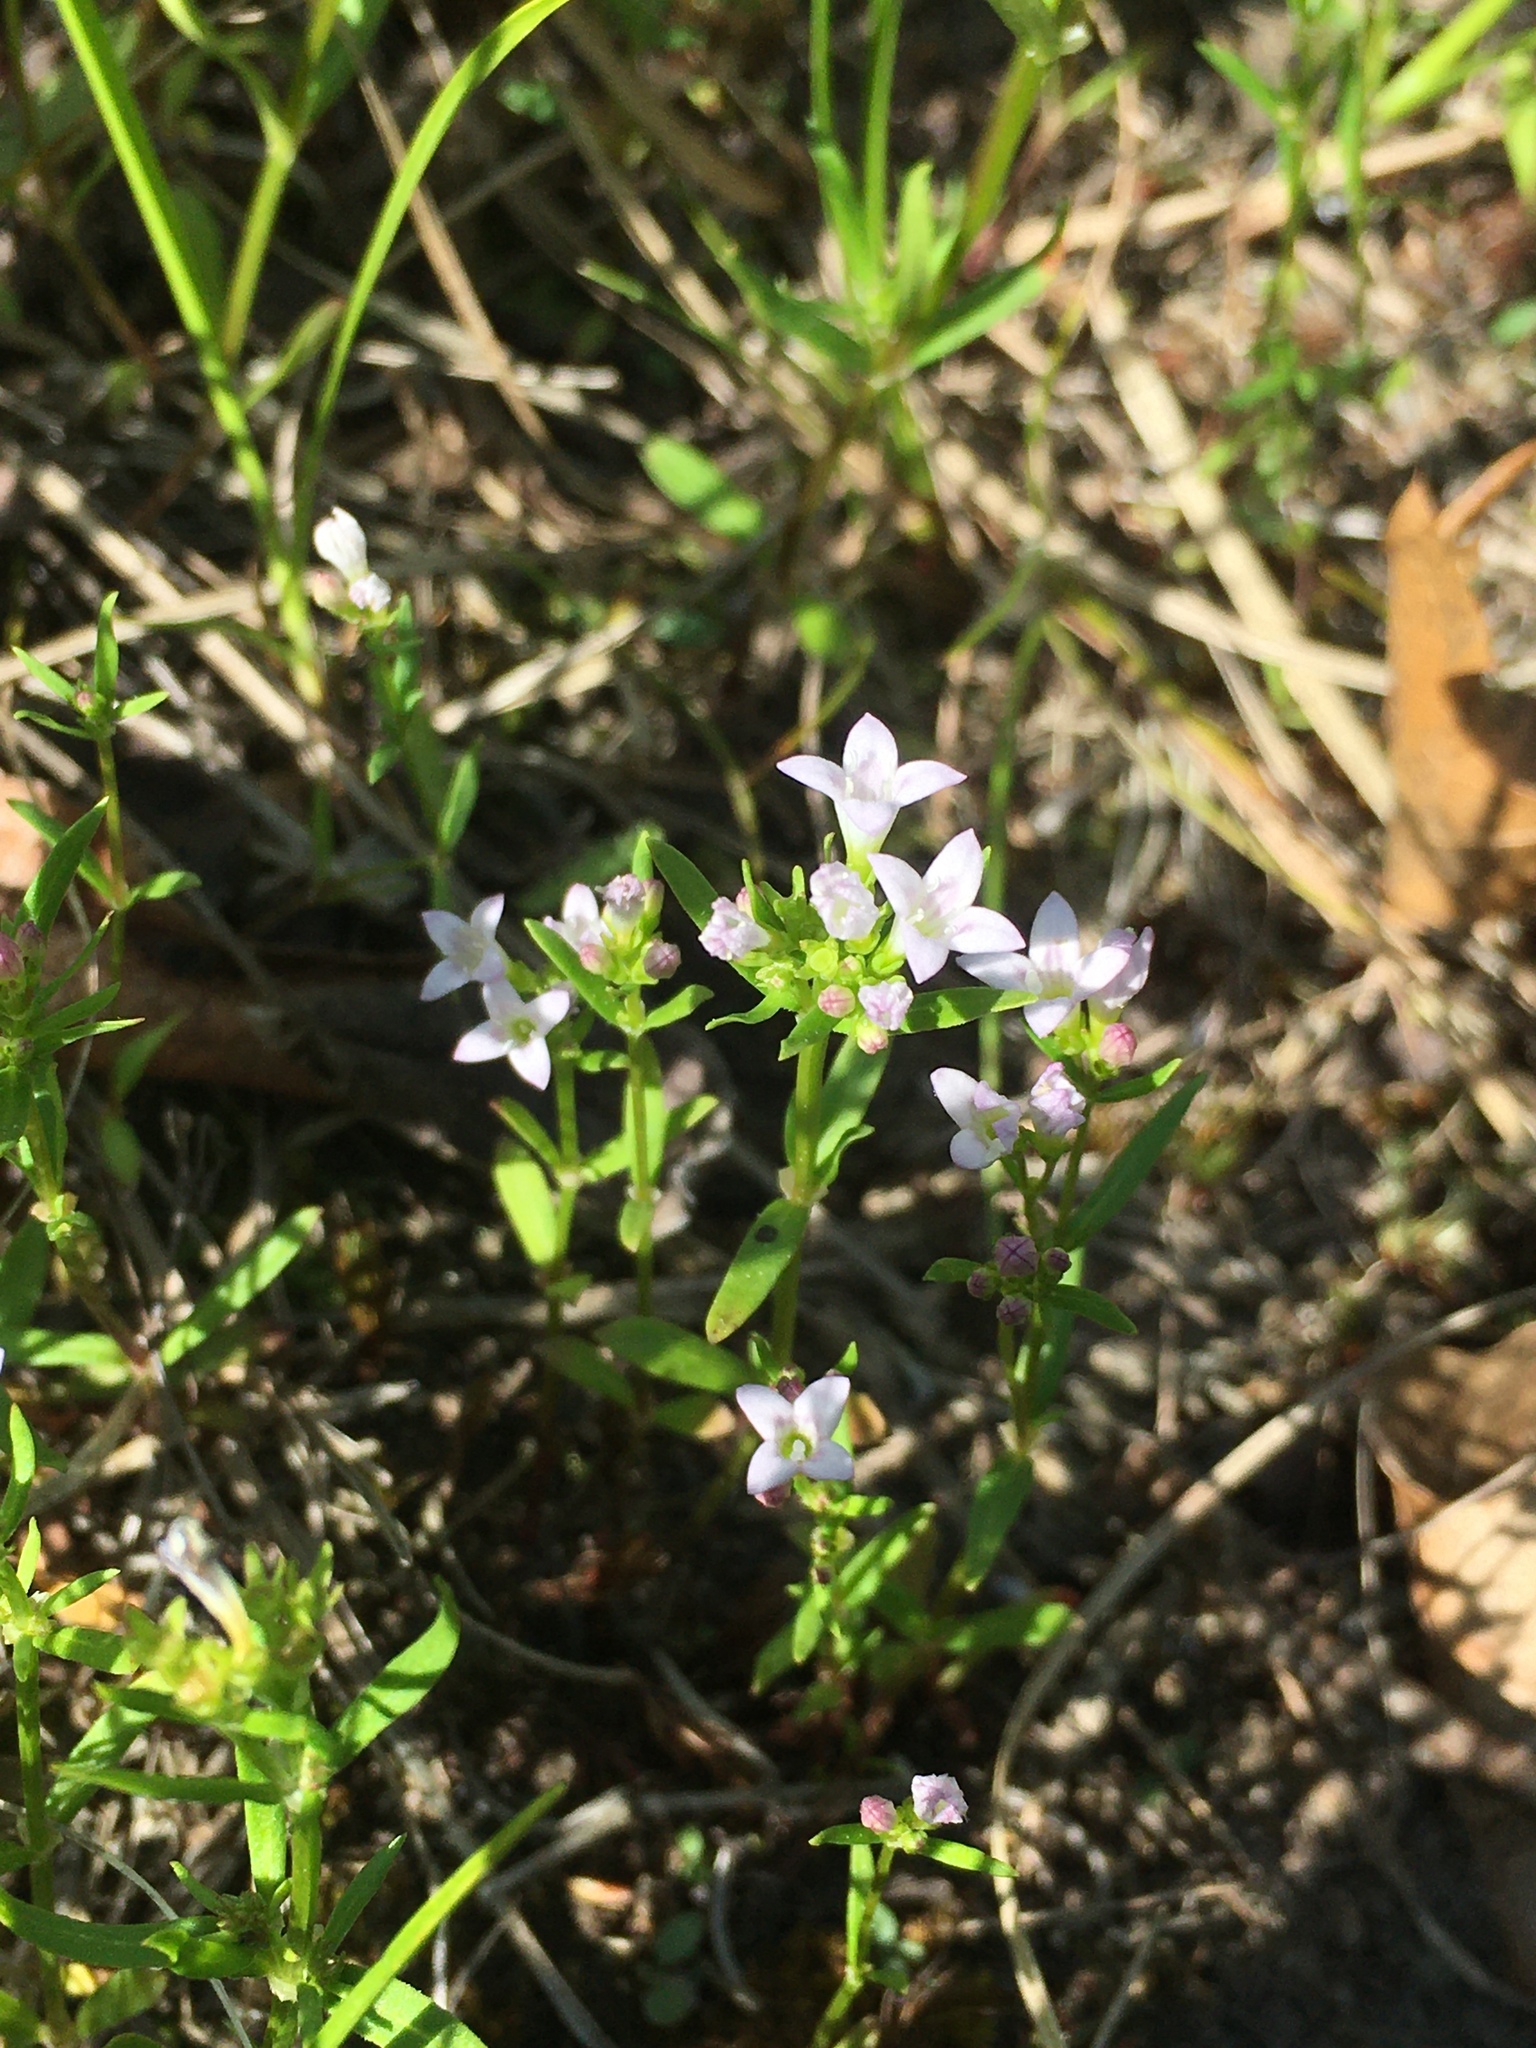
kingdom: Plantae
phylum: Tracheophyta
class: Magnoliopsida
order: Gentianales
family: Rubiaceae
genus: Houstonia
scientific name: Houstonia longifolia
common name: Long-leaved bluets
